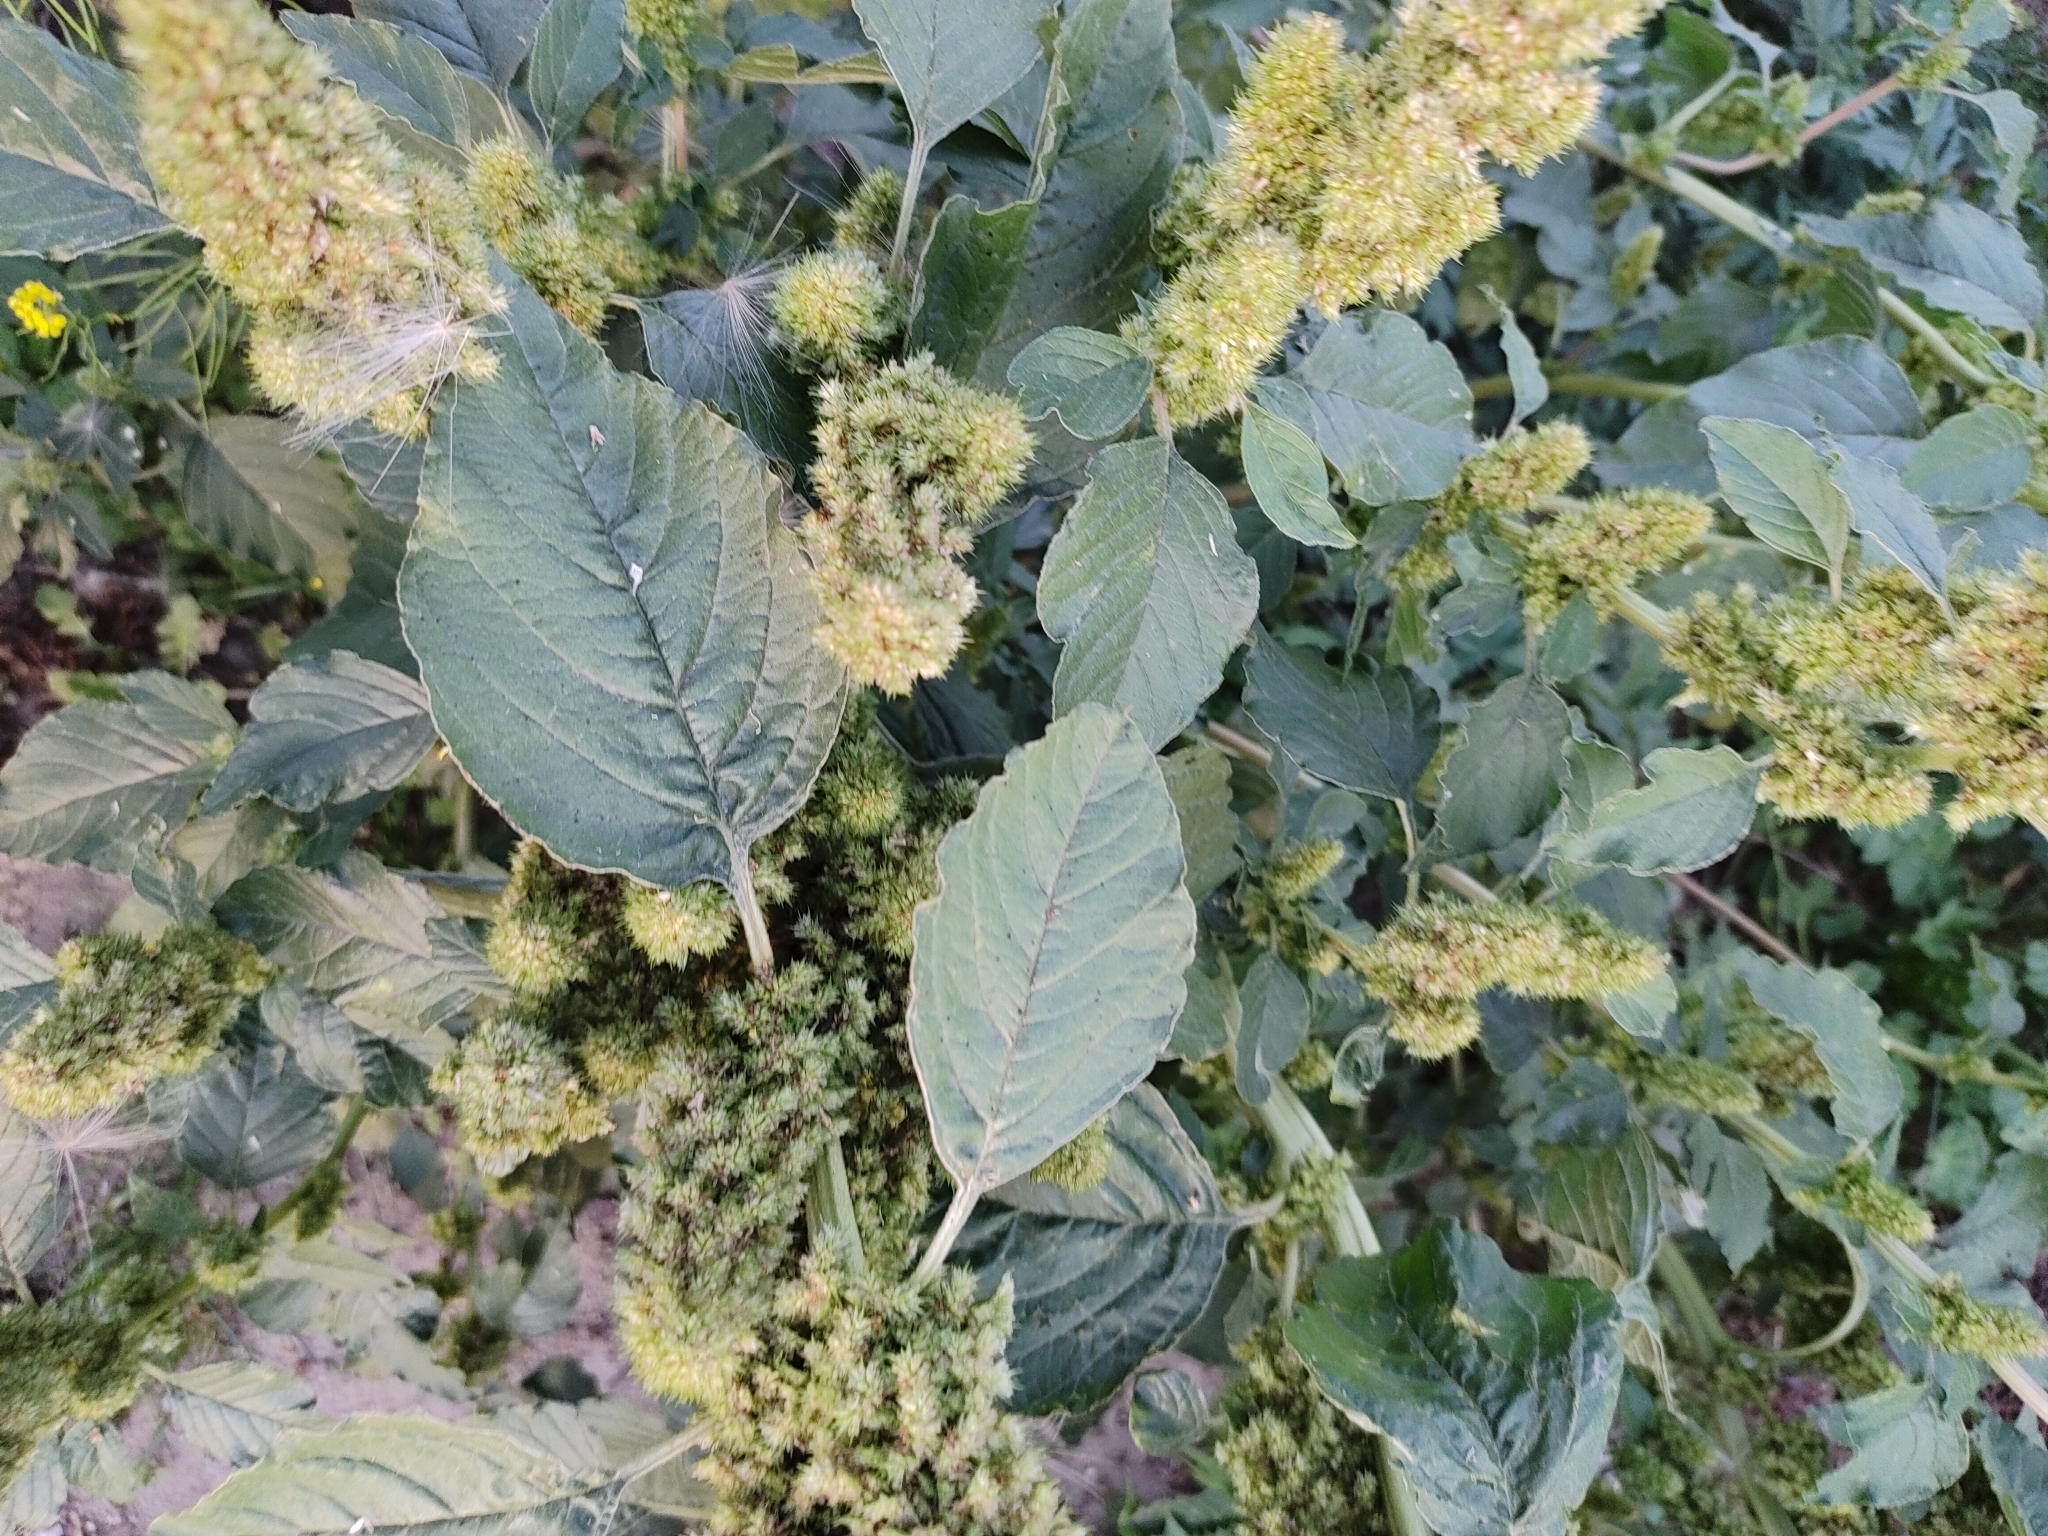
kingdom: Plantae
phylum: Tracheophyta
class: Magnoliopsida
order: Caryophyllales
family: Amaranthaceae
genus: Amaranthus
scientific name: Amaranthus retroflexus
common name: Redroot amaranth
